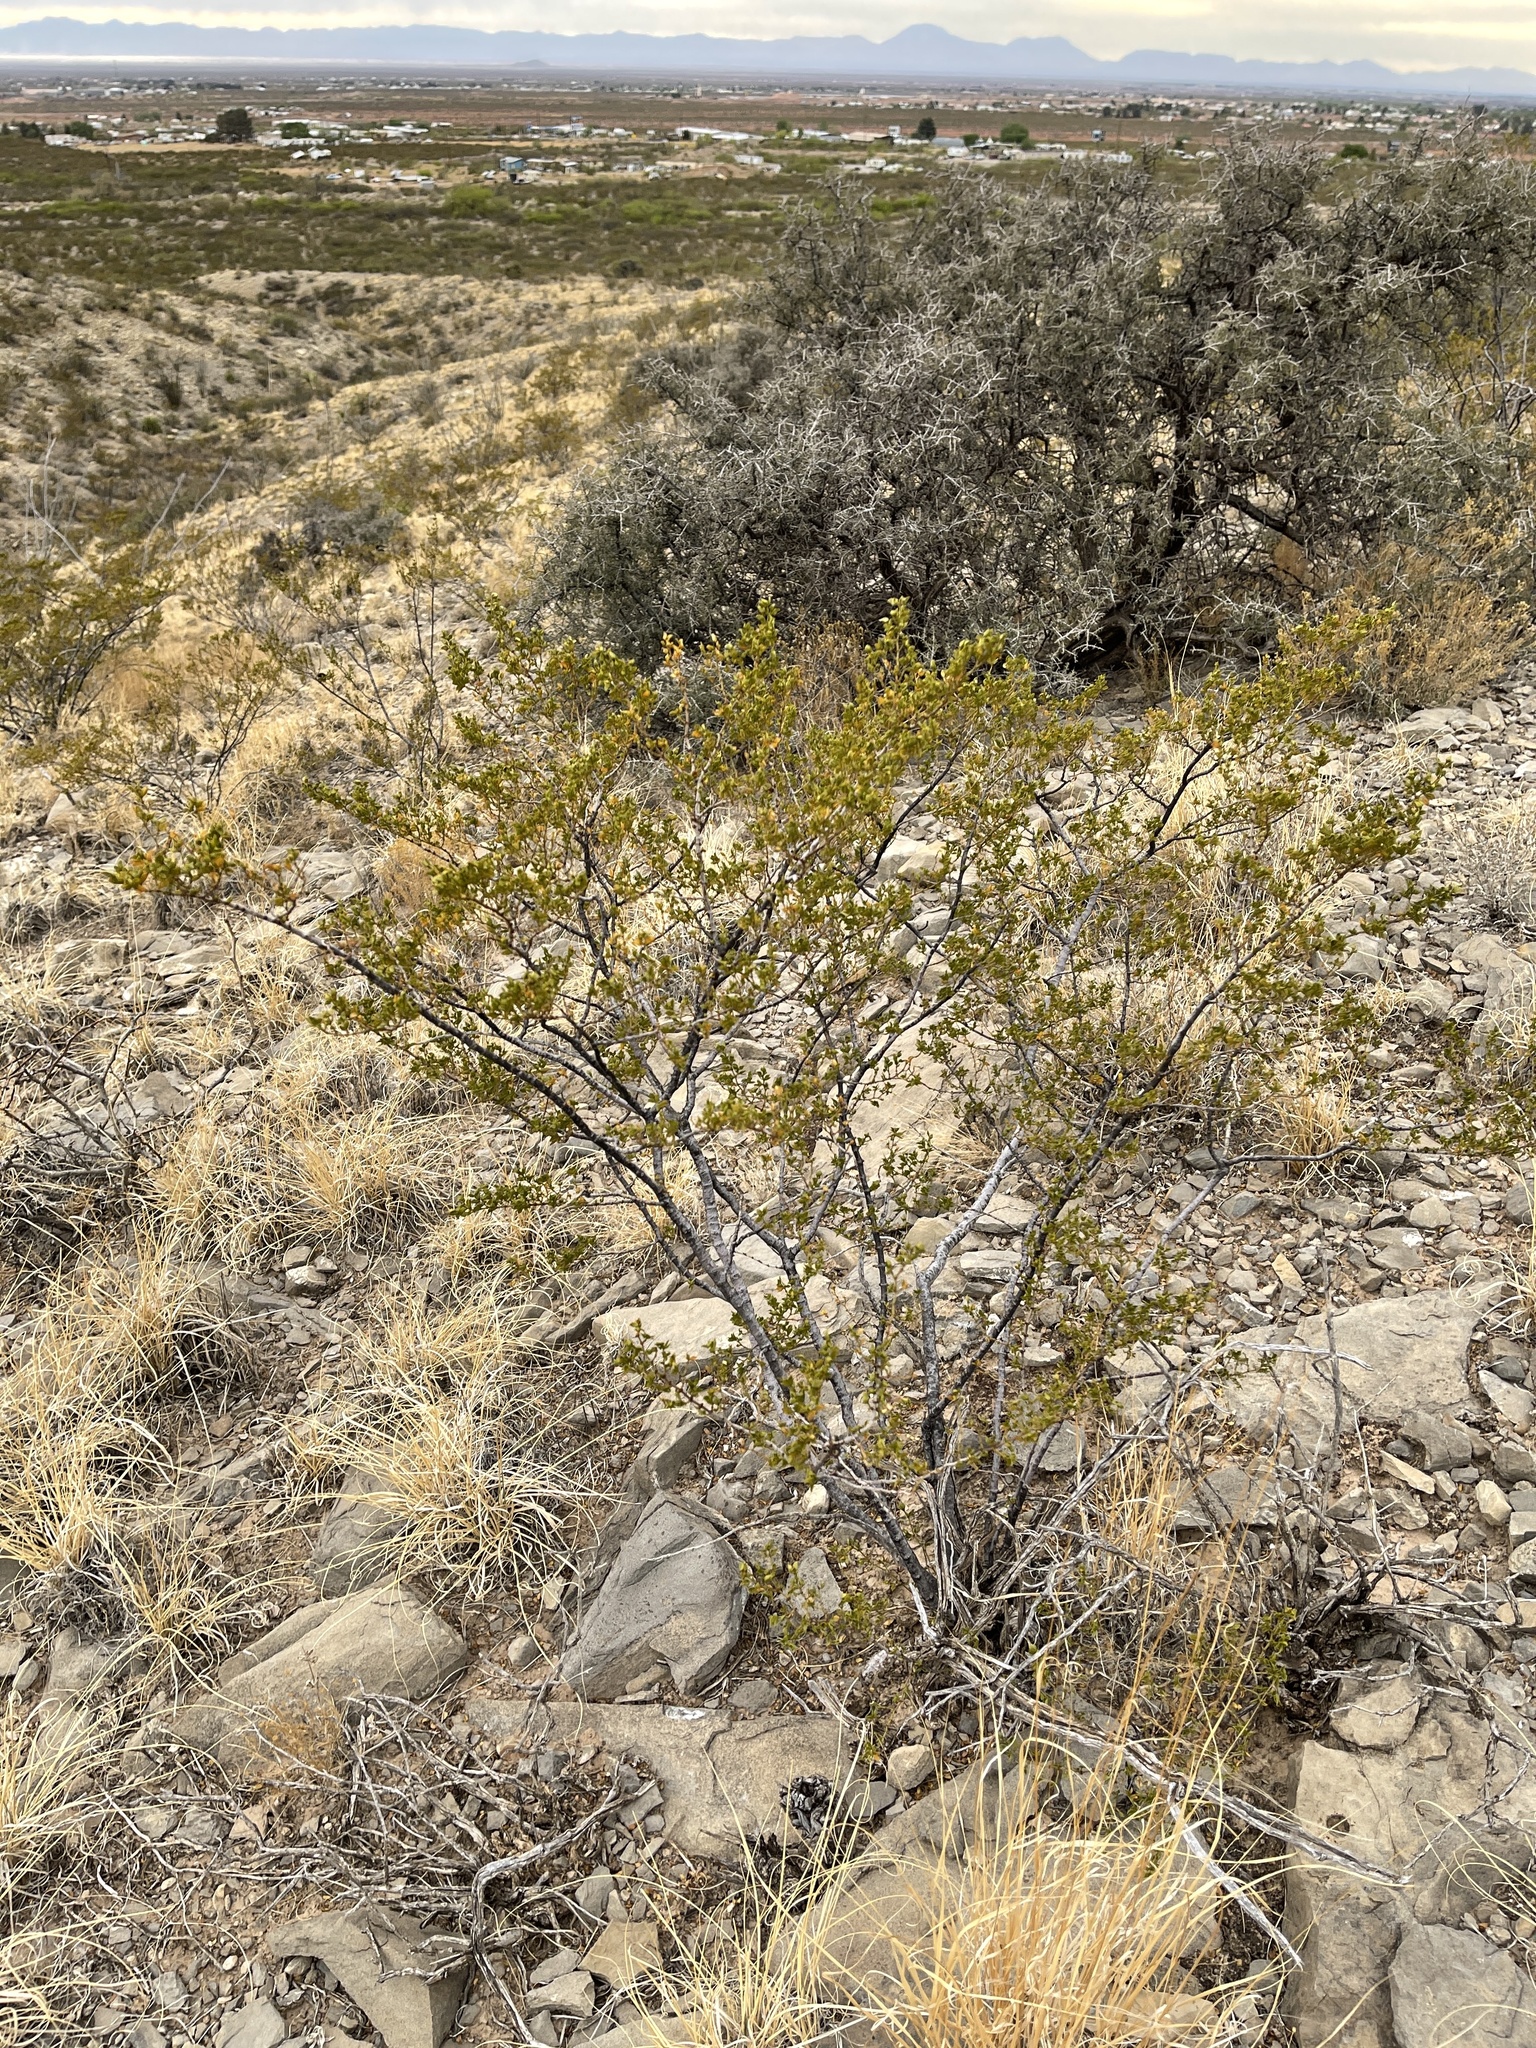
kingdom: Plantae
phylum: Tracheophyta
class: Magnoliopsida
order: Zygophyllales
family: Zygophyllaceae
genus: Larrea
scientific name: Larrea tridentata
